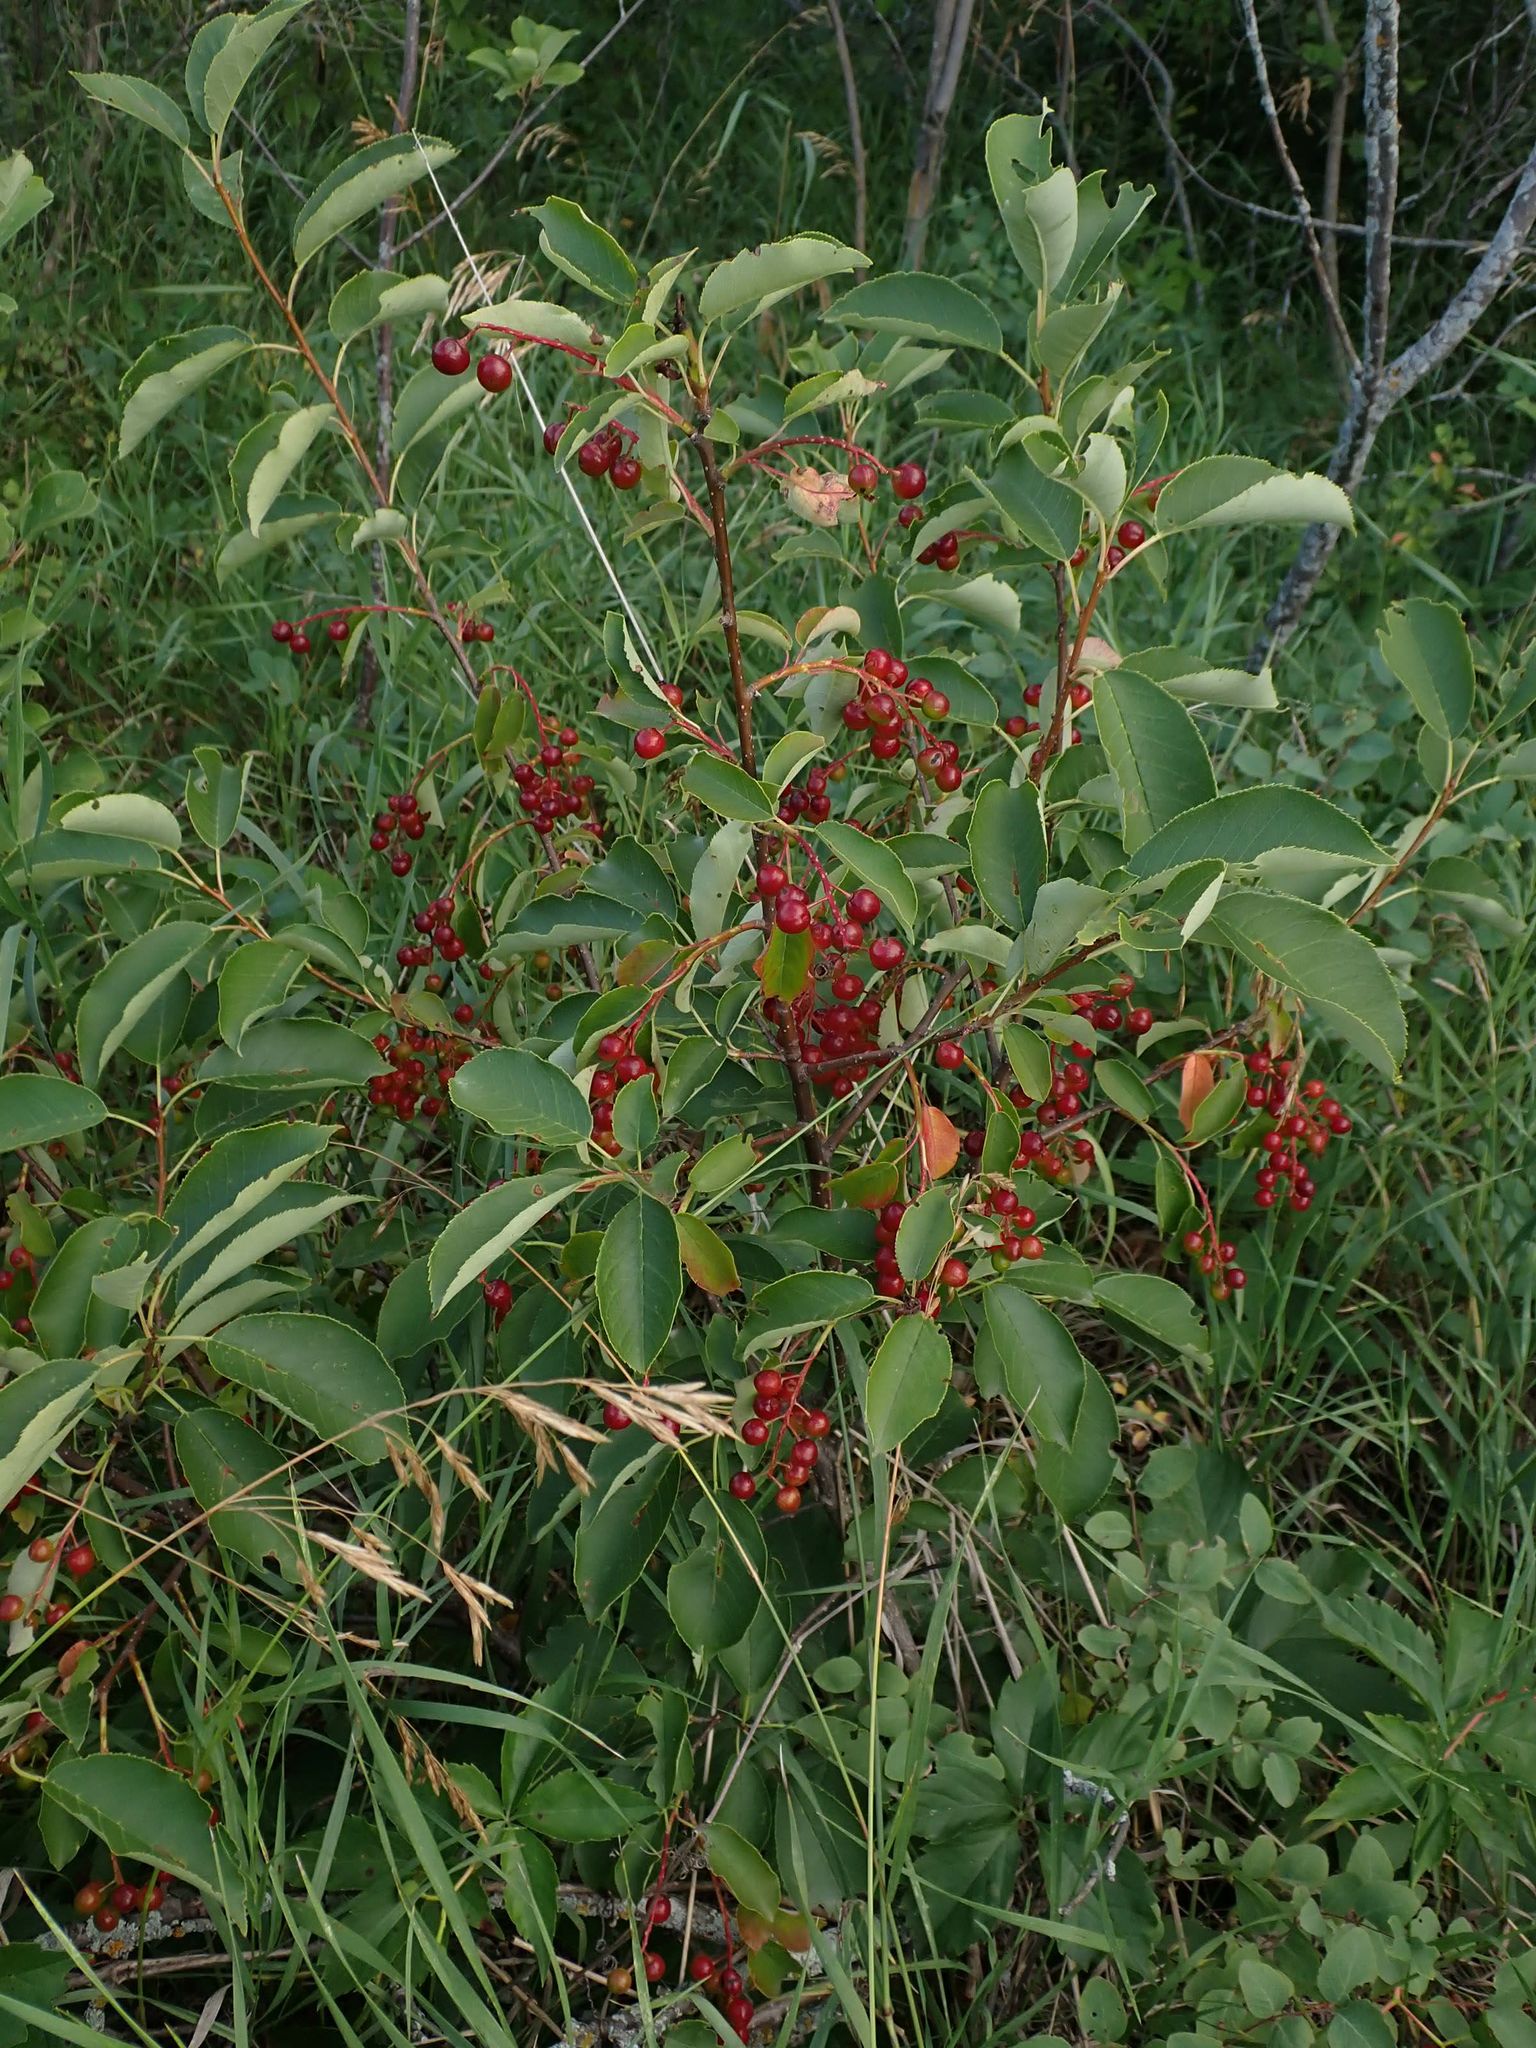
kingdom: Plantae
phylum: Tracheophyta
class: Magnoliopsida
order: Rosales
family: Rosaceae
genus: Prunus
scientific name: Prunus virginiana
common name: Chokecherry
